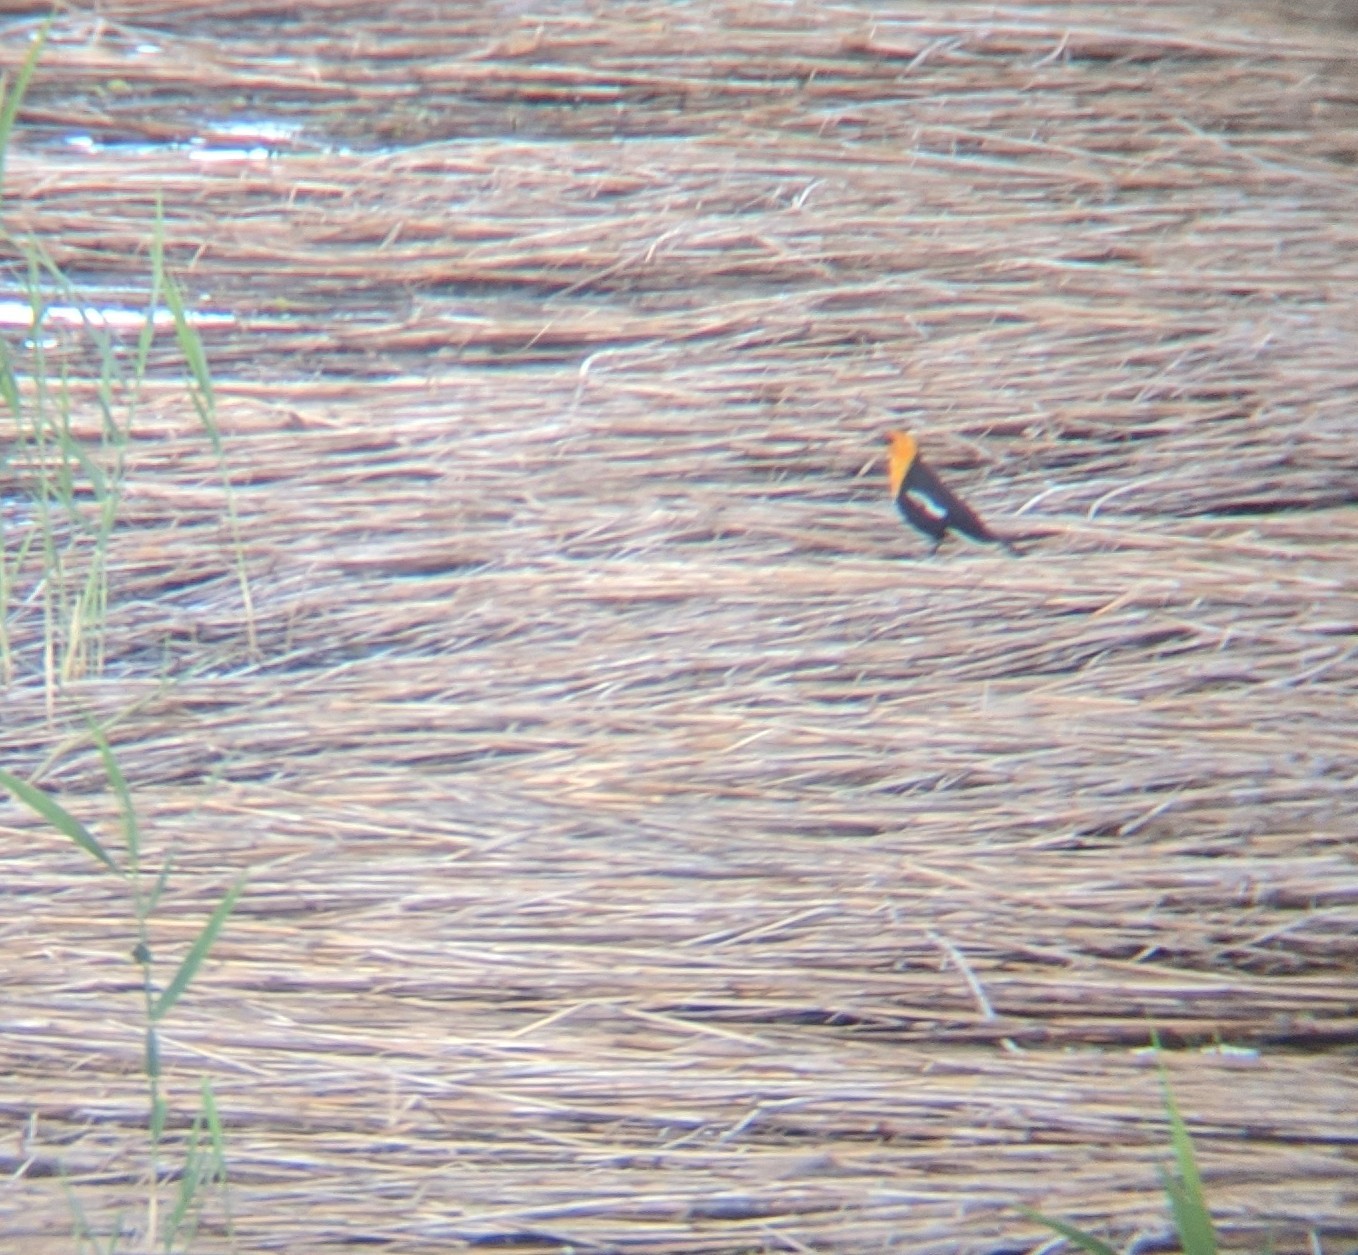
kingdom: Animalia
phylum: Chordata
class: Aves
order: Passeriformes
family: Icteridae
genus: Xanthocephalus
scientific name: Xanthocephalus xanthocephalus
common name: Yellow-headed blackbird
